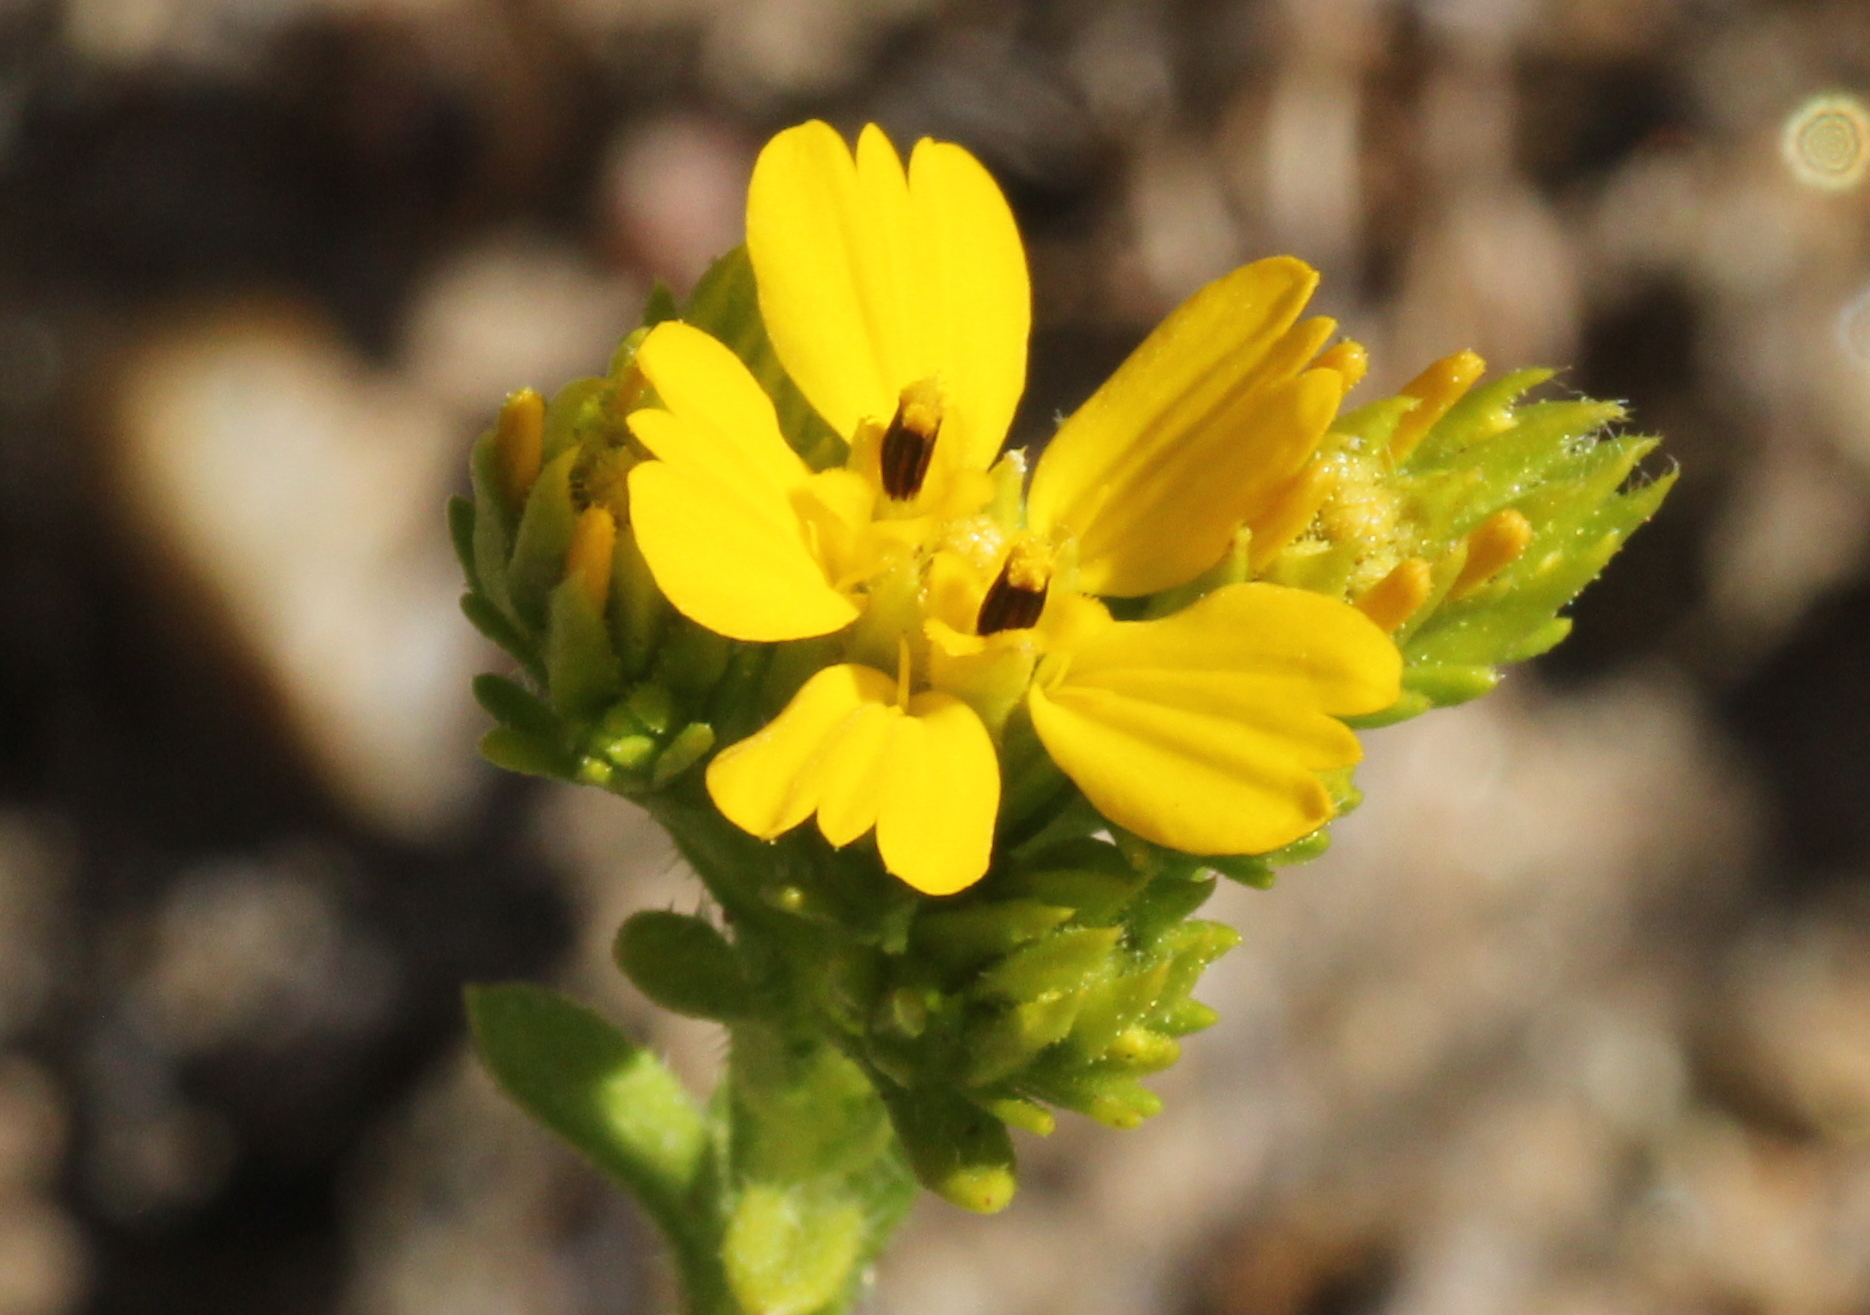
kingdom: Plantae
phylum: Tracheophyta
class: Magnoliopsida
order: Asterales
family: Asteraceae
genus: Deinandra
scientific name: Deinandra fasciculata
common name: Clustered tarweed
